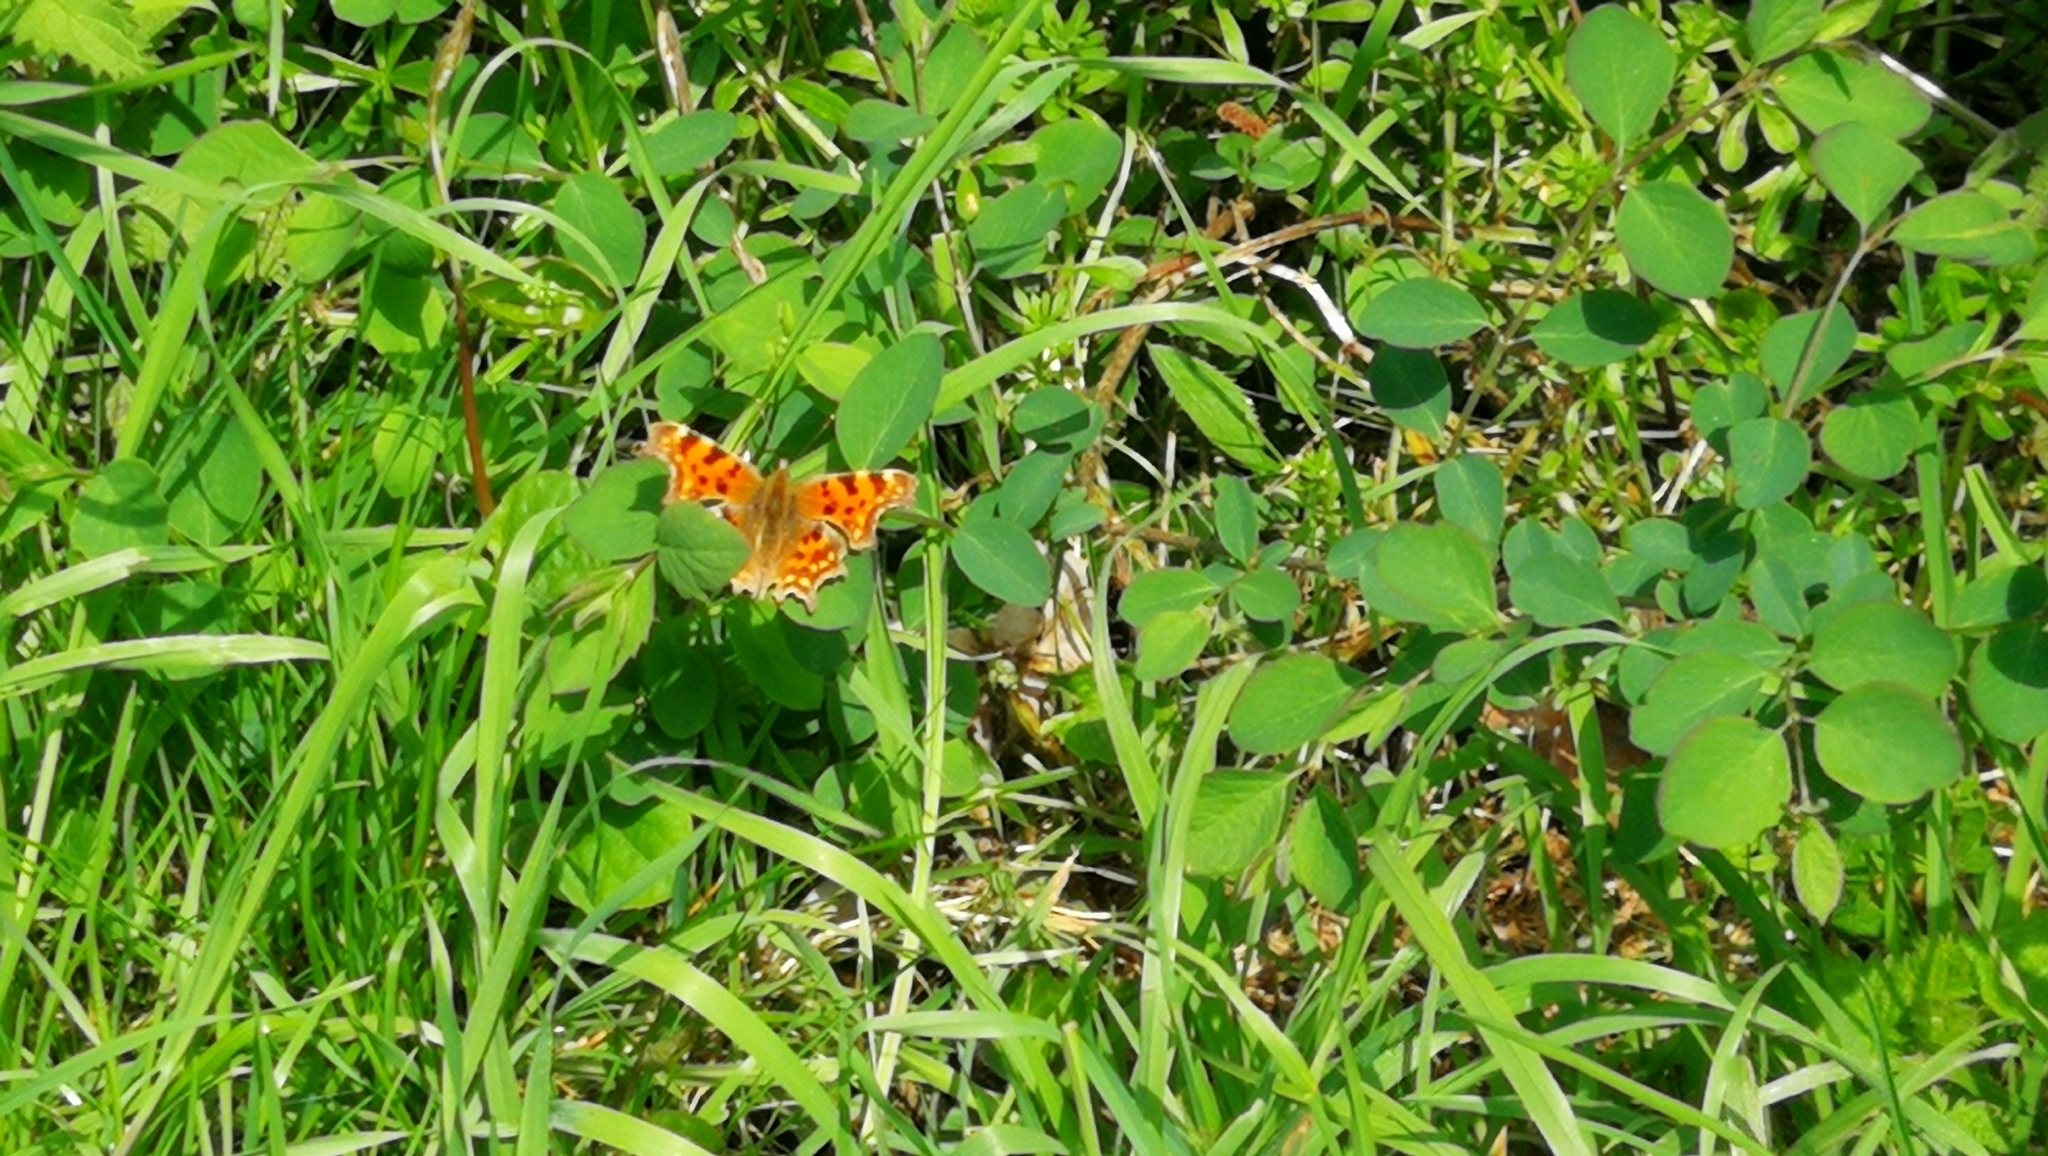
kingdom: Animalia
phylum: Arthropoda
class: Insecta
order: Lepidoptera
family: Nymphalidae
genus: Polygonia
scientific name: Polygonia c-album
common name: Comma
